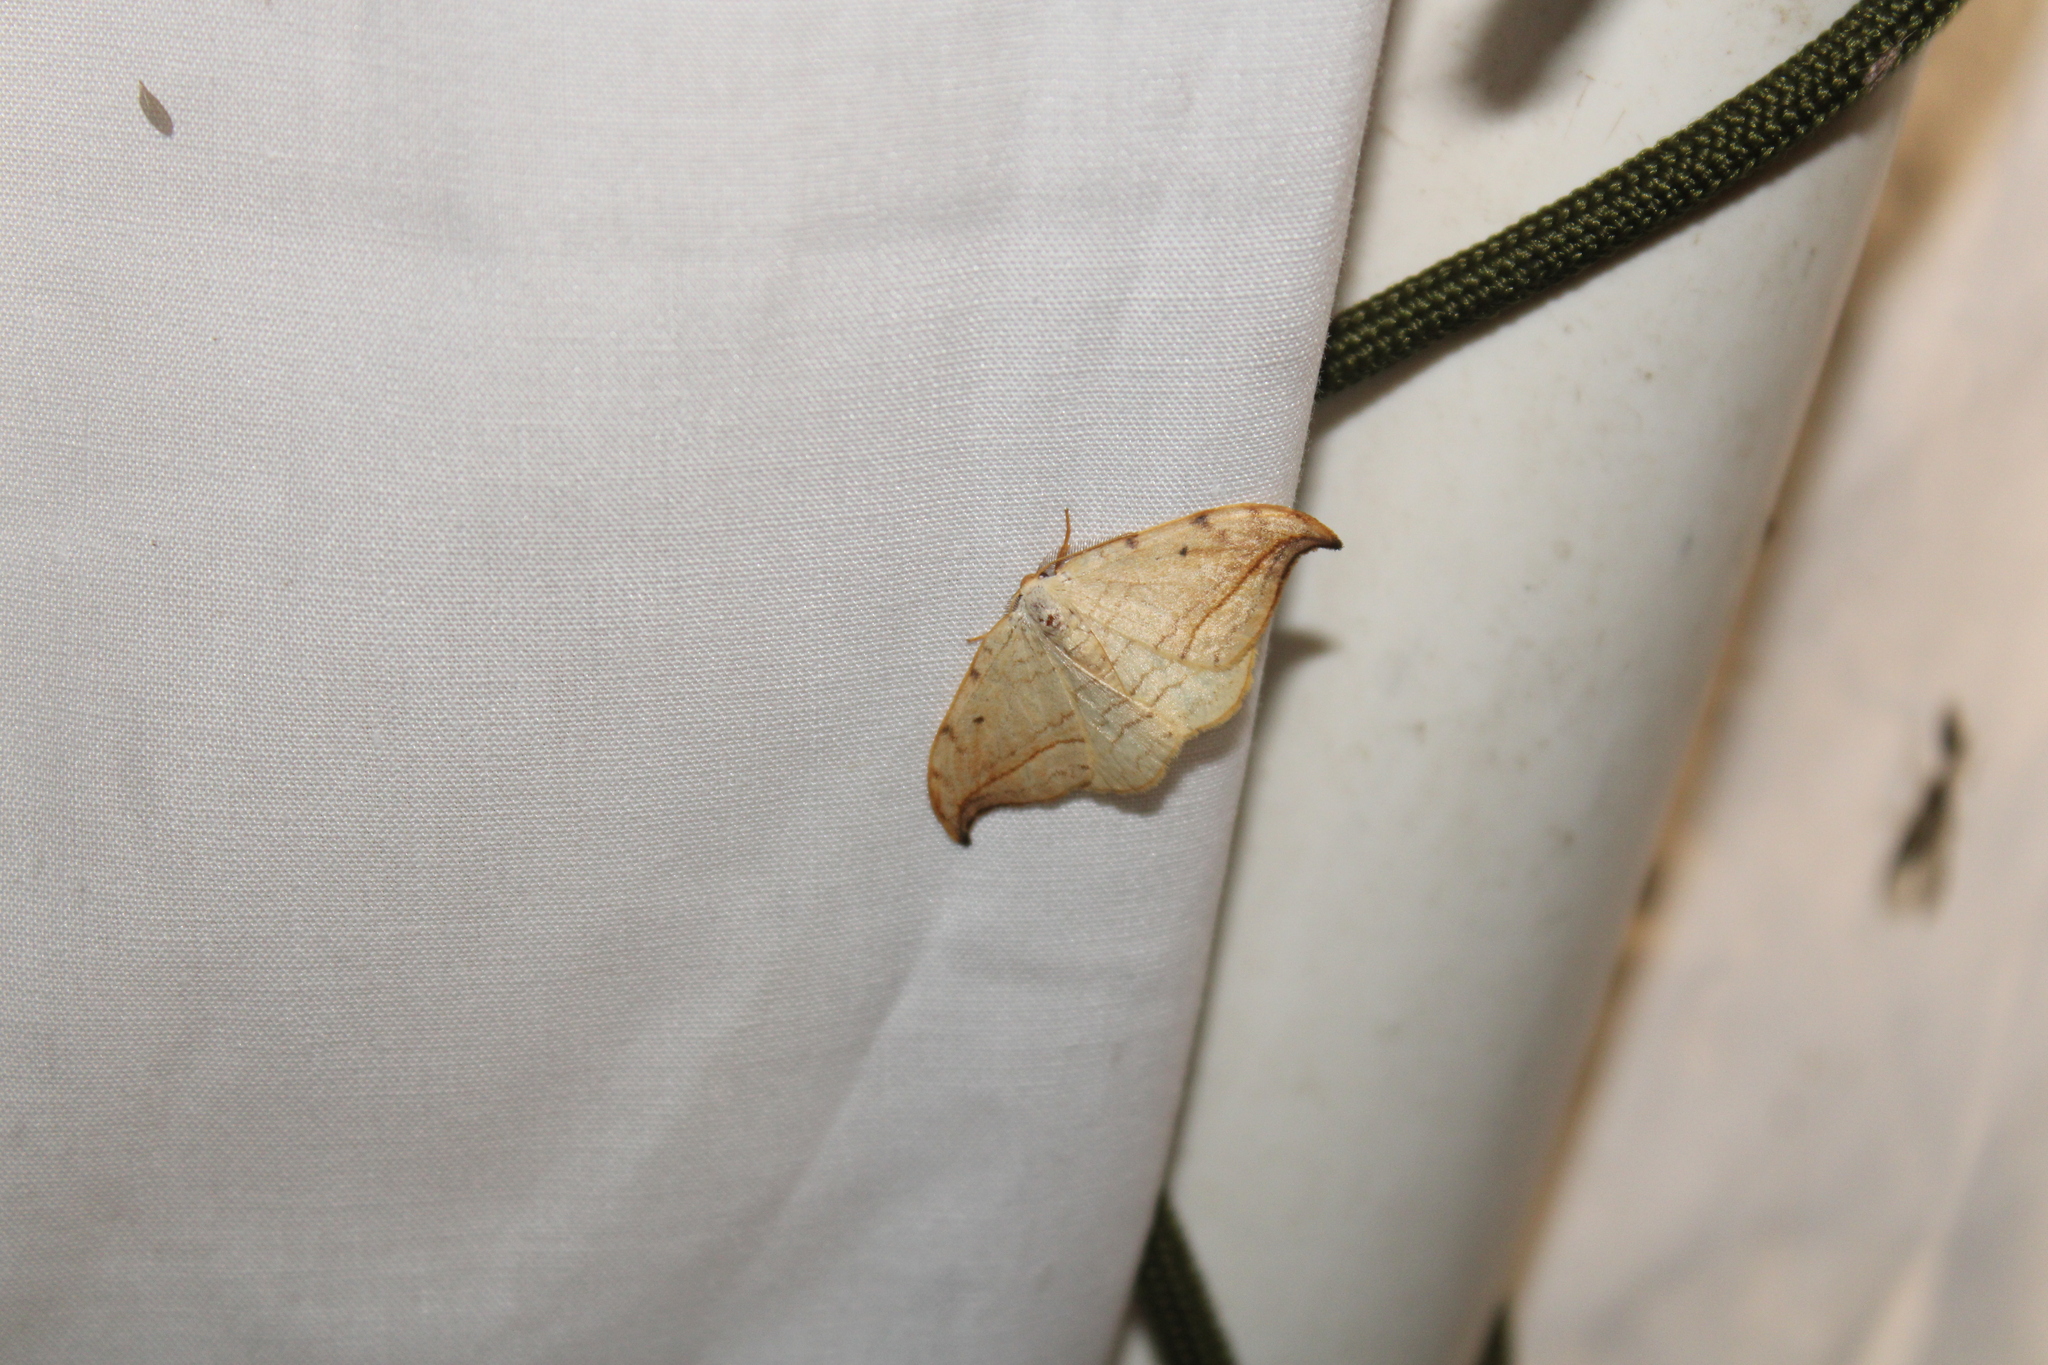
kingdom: Animalia
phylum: Arthropoda
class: Insecta
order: Lepidoptera
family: Drepanidae
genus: Drepana
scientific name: Drepana arcuata
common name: Arched hooktip moth
